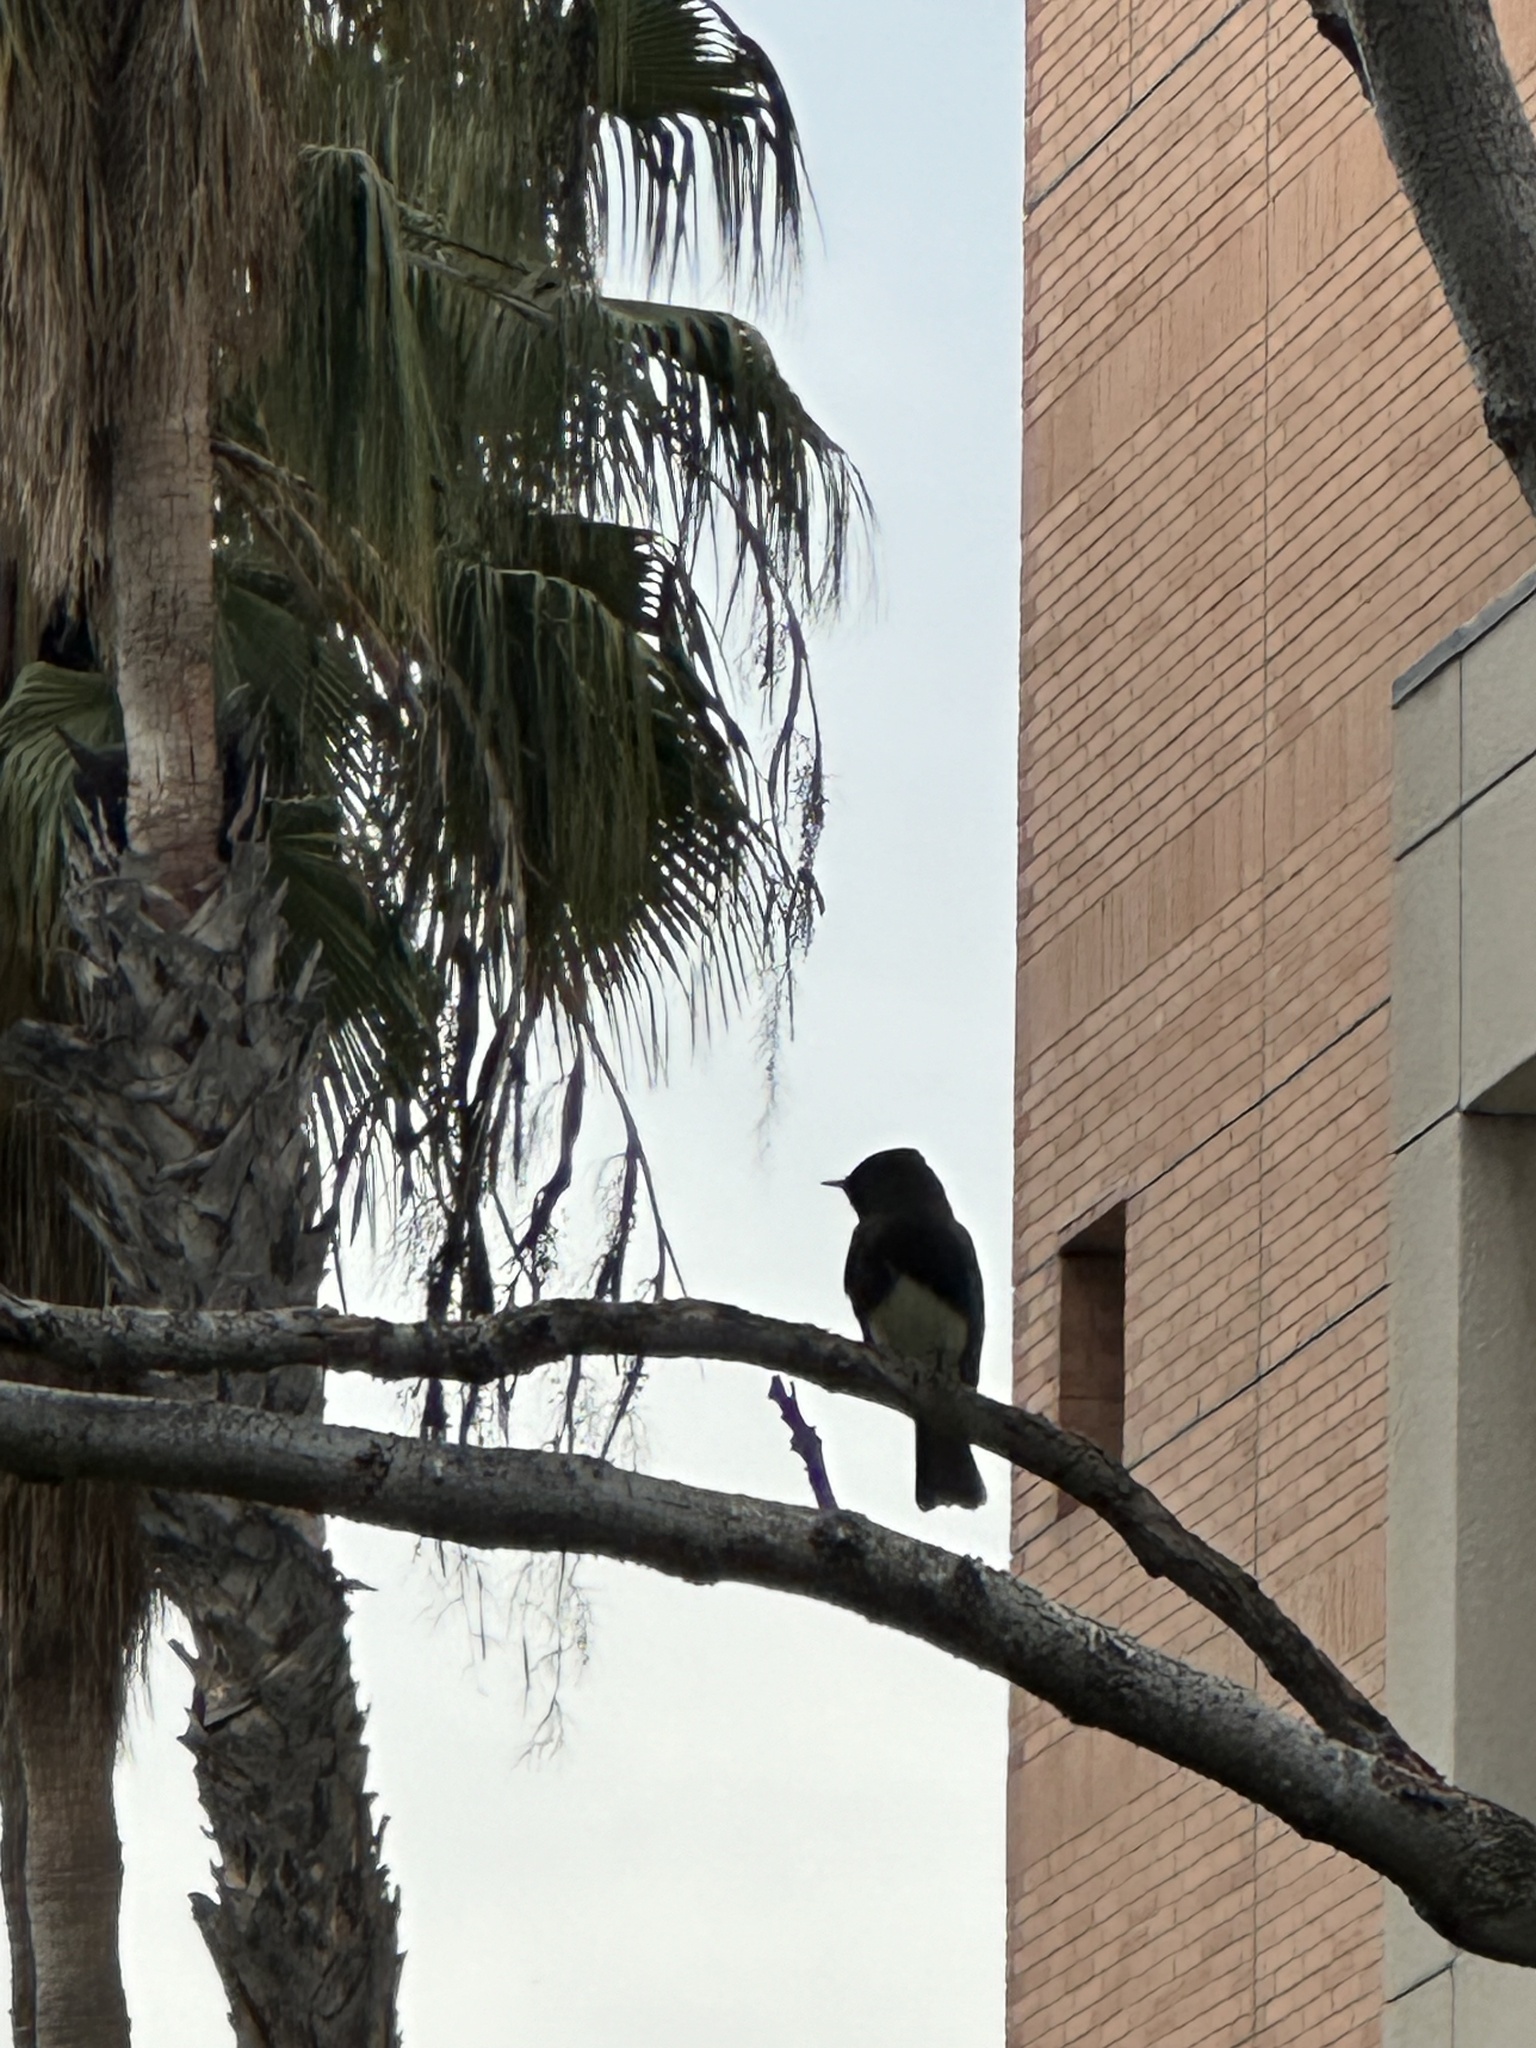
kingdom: Animalia
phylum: Chordata
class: Aves
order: Passeriformes
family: Tyrannidae
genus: Sayornis
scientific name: Sayornis nigricans
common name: Black phoebe
